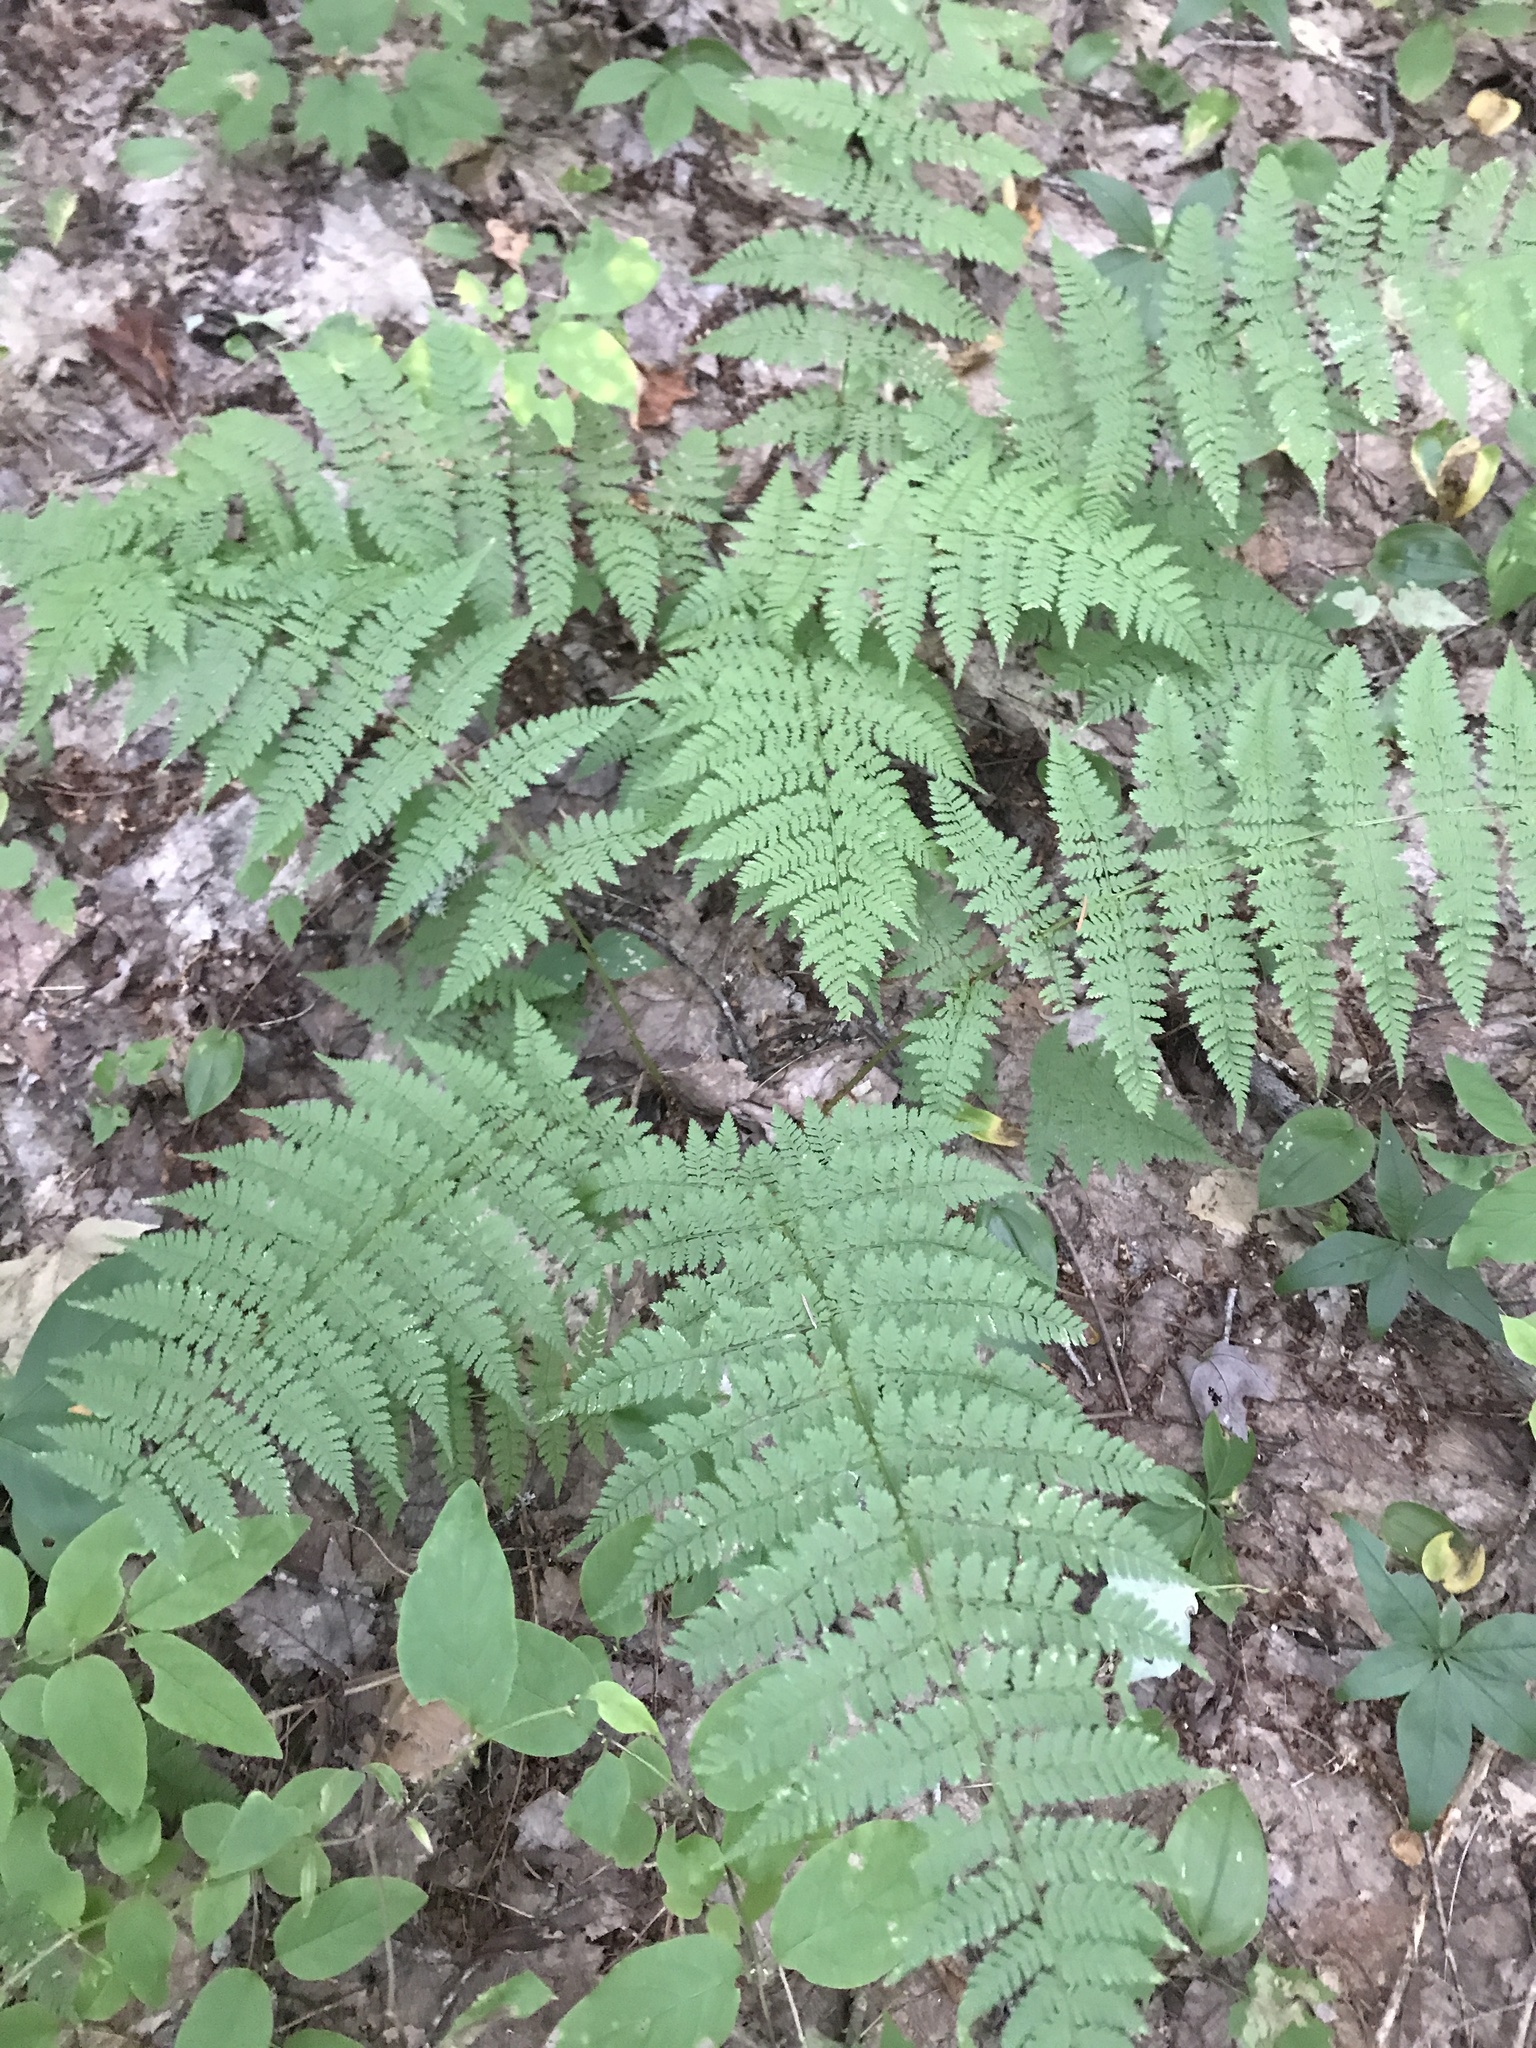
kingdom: Plantae
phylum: Tracheophyta
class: Polypodiopsida
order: Polypodiales
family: Dryopteridaceae
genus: Dryopteris
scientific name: Dryopteris intermedia
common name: Evergreen wood fern
